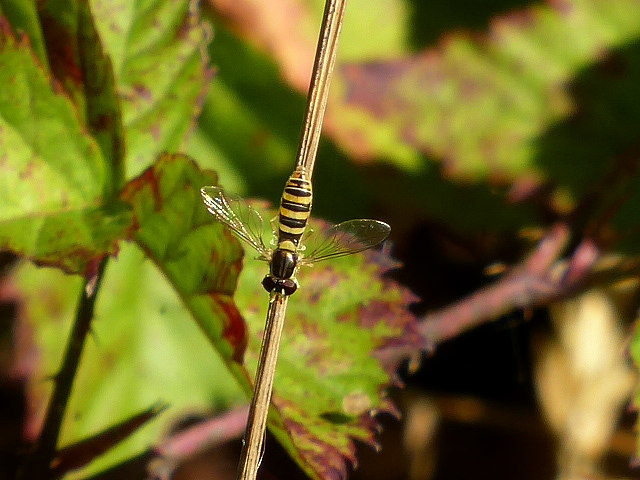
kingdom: Animalia
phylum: Arthropoda
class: Insecta
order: Diptera
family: Syrphidae
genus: Sphaerophoria
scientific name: Sphaerophoria contigua
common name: Tufted globetail
